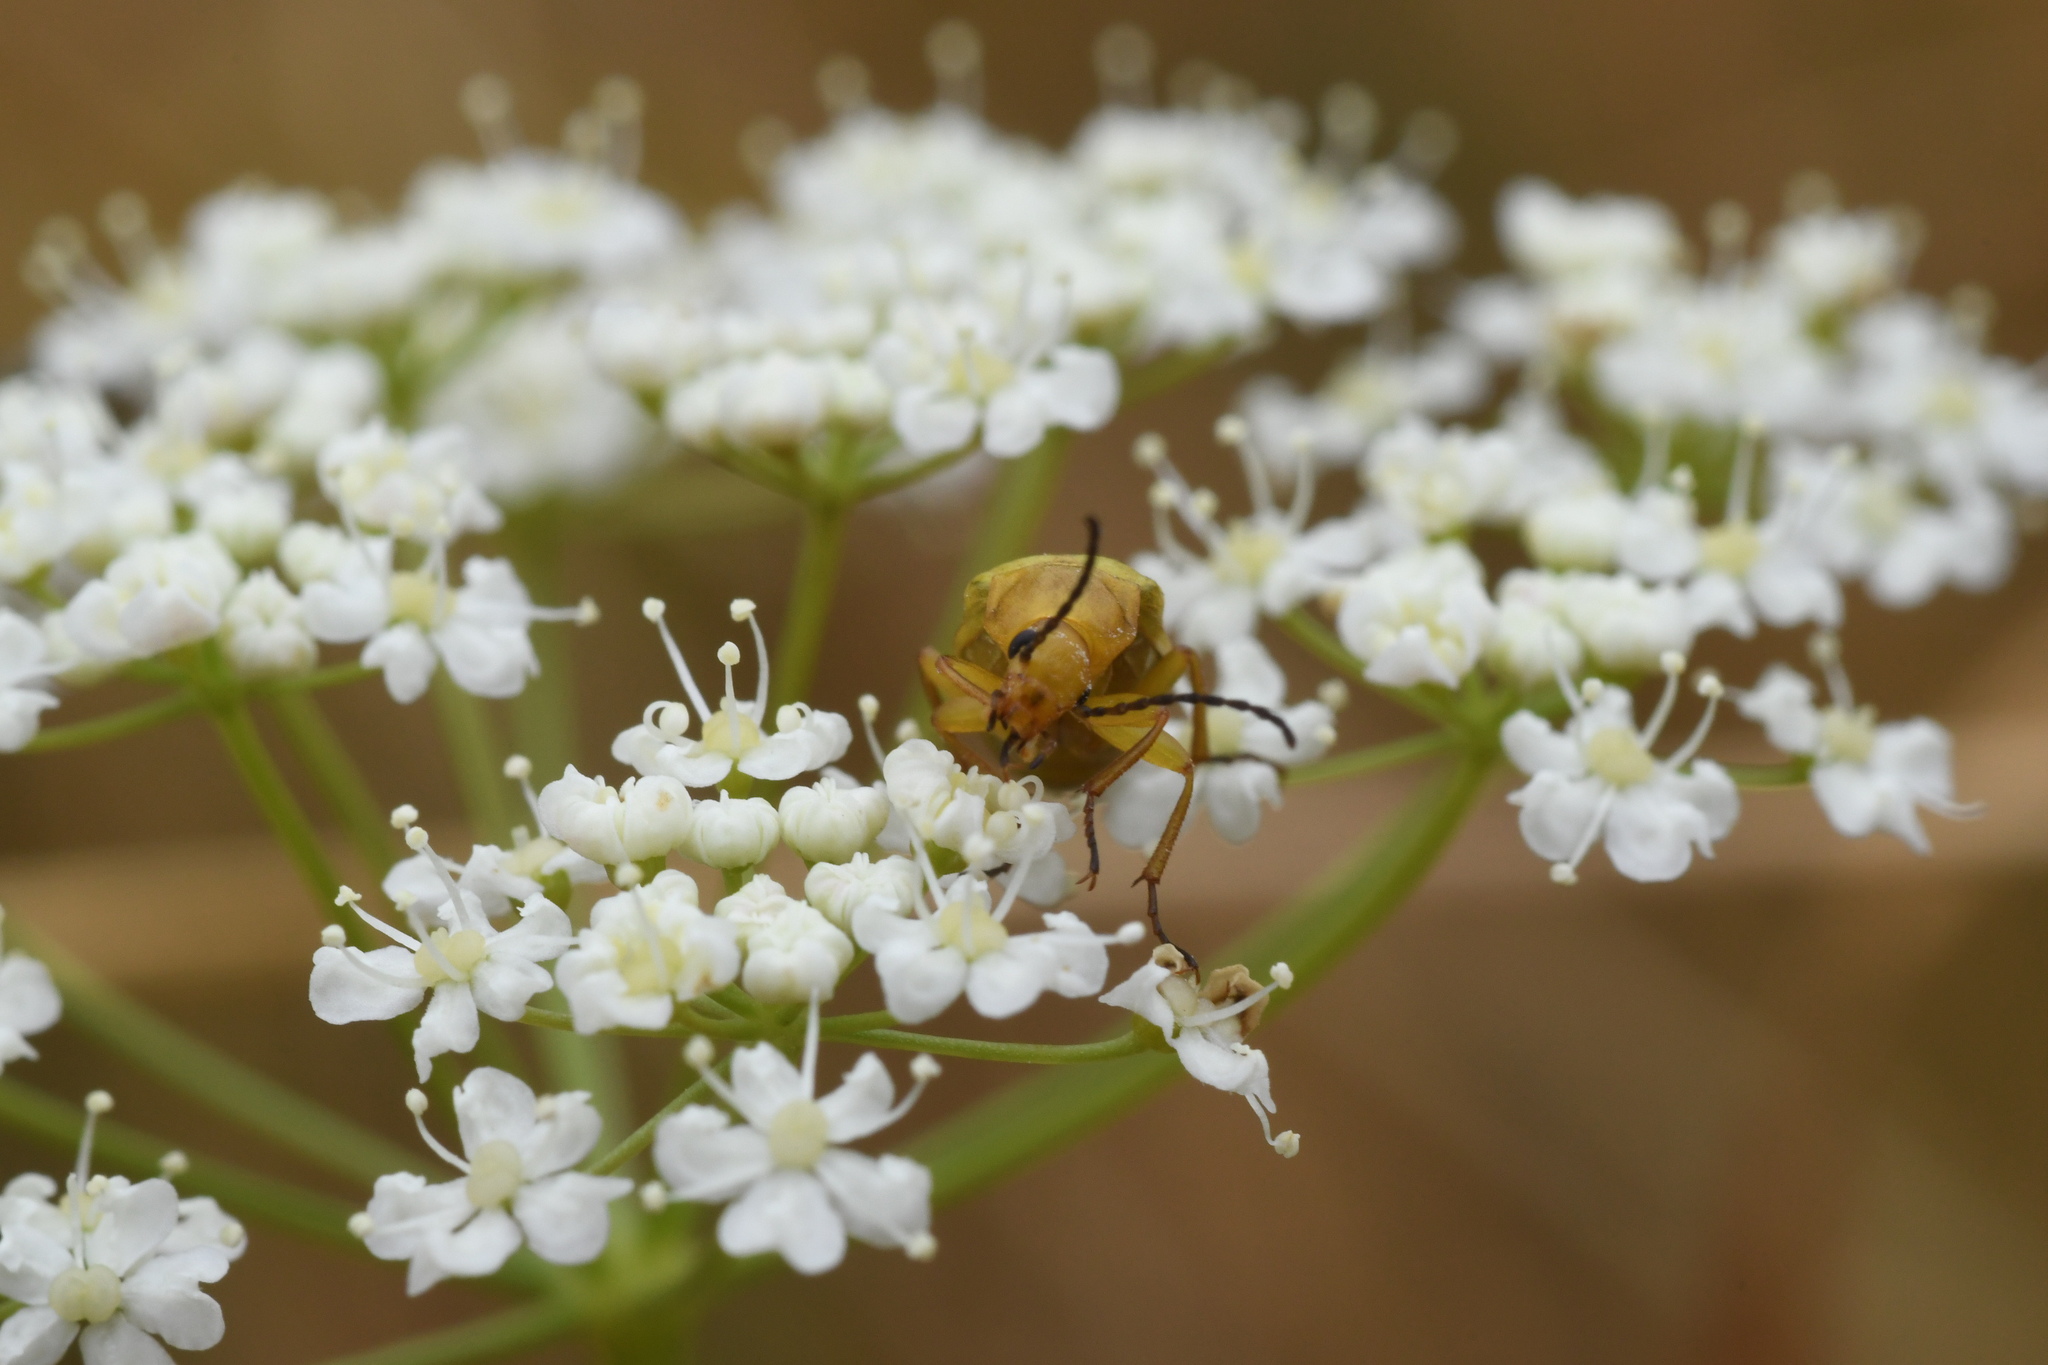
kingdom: Animalia
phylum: Arthropoda
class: Insecta
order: Coleoptera
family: Tenebrionidae
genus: Cteniopus
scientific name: Cteniopus sulphureus
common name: Sulphur beetle
